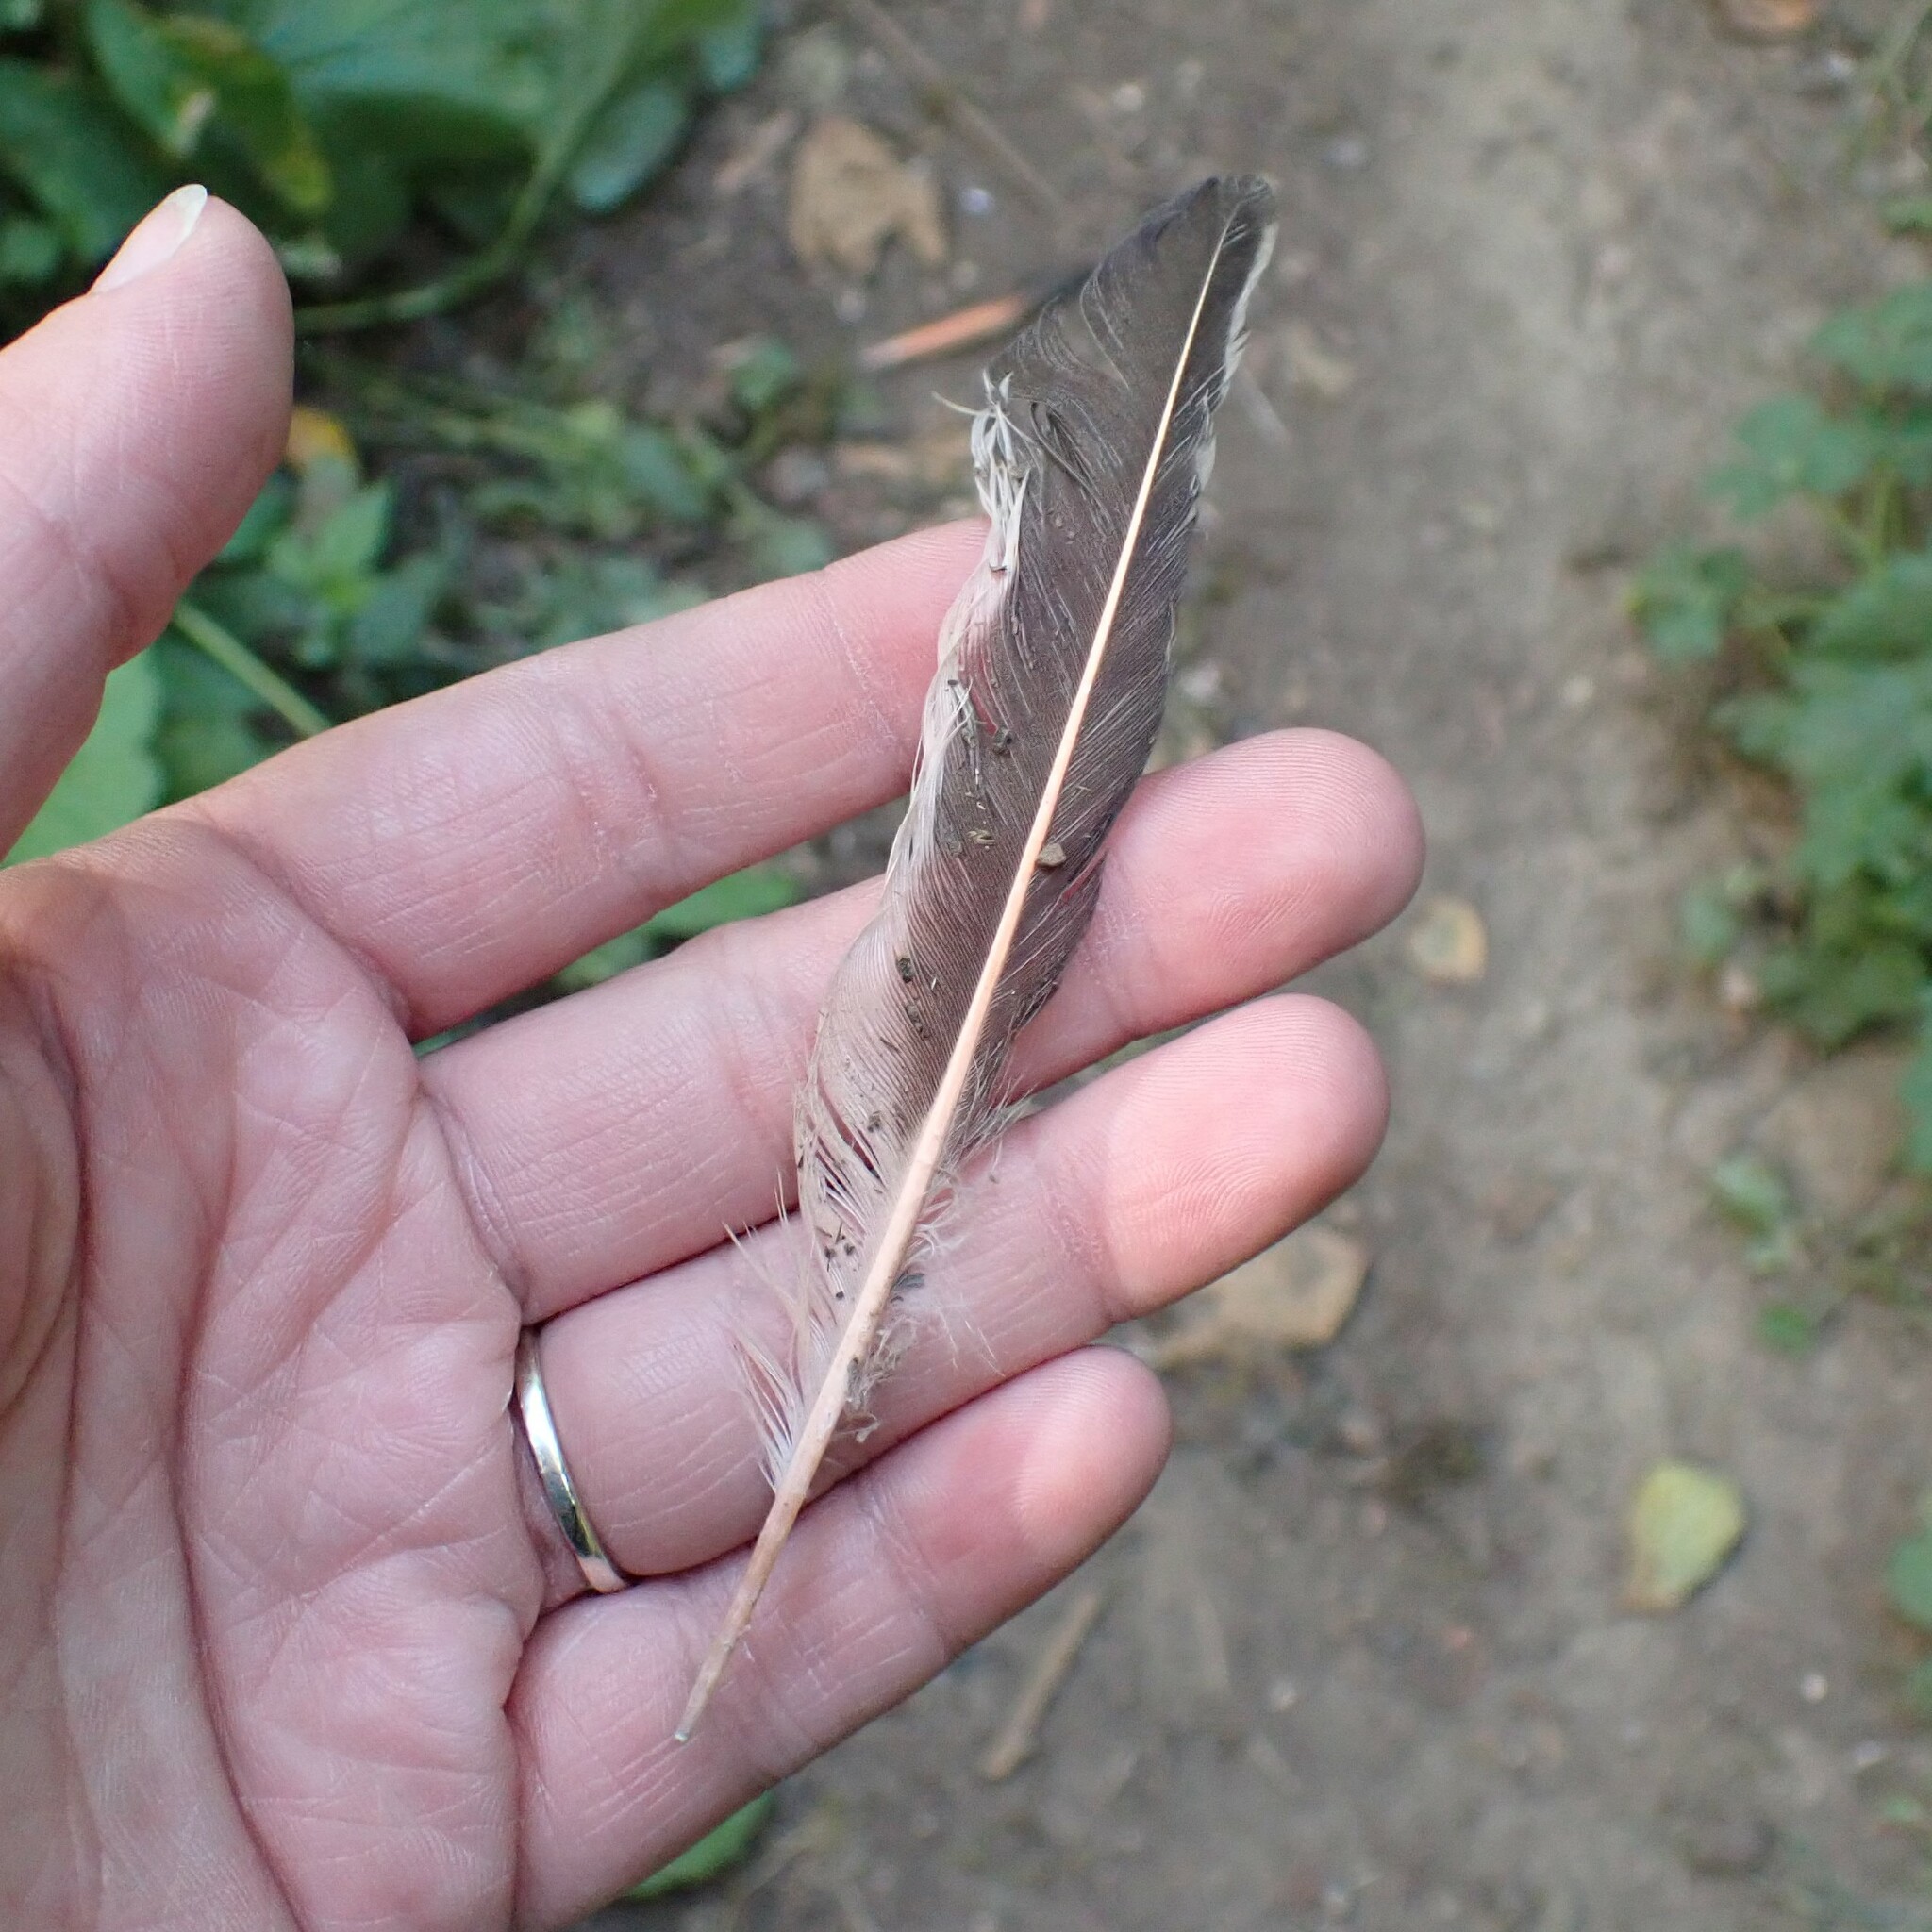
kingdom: Animalia
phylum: Chordata
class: Aves
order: Piciformes
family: Picidae
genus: Colaptes
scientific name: Colaptes auratus
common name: Northern flicker
